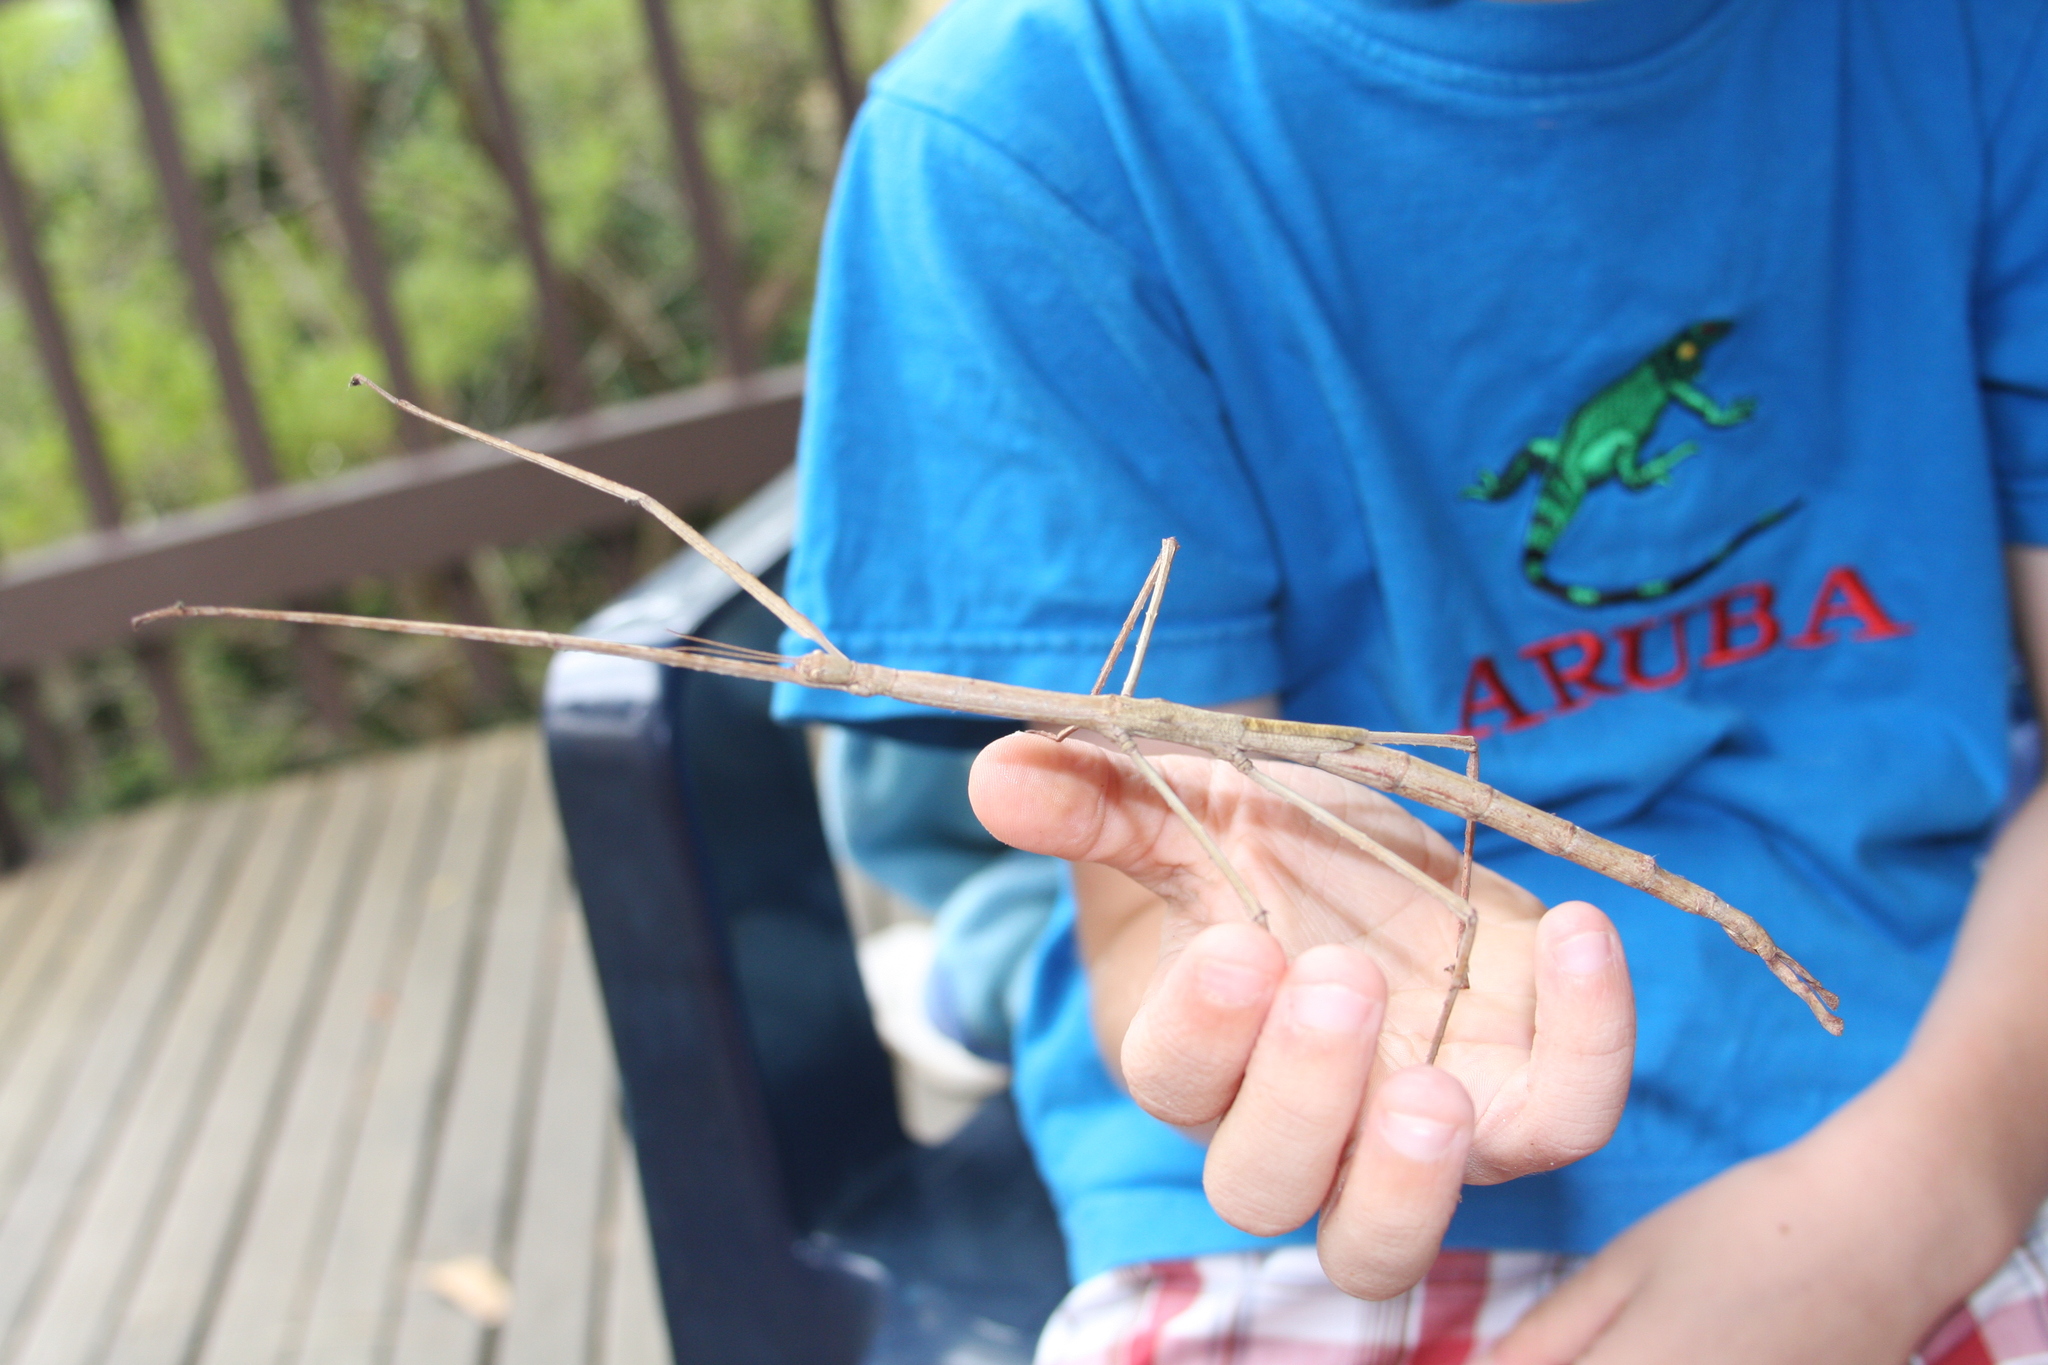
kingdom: Animalia
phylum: Arthropoda
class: Insecta
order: Phasmida
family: Phasmatidae
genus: Ctenomorpha
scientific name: Ctenomorpha marginipennis
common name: Margined-winged stick-insect
